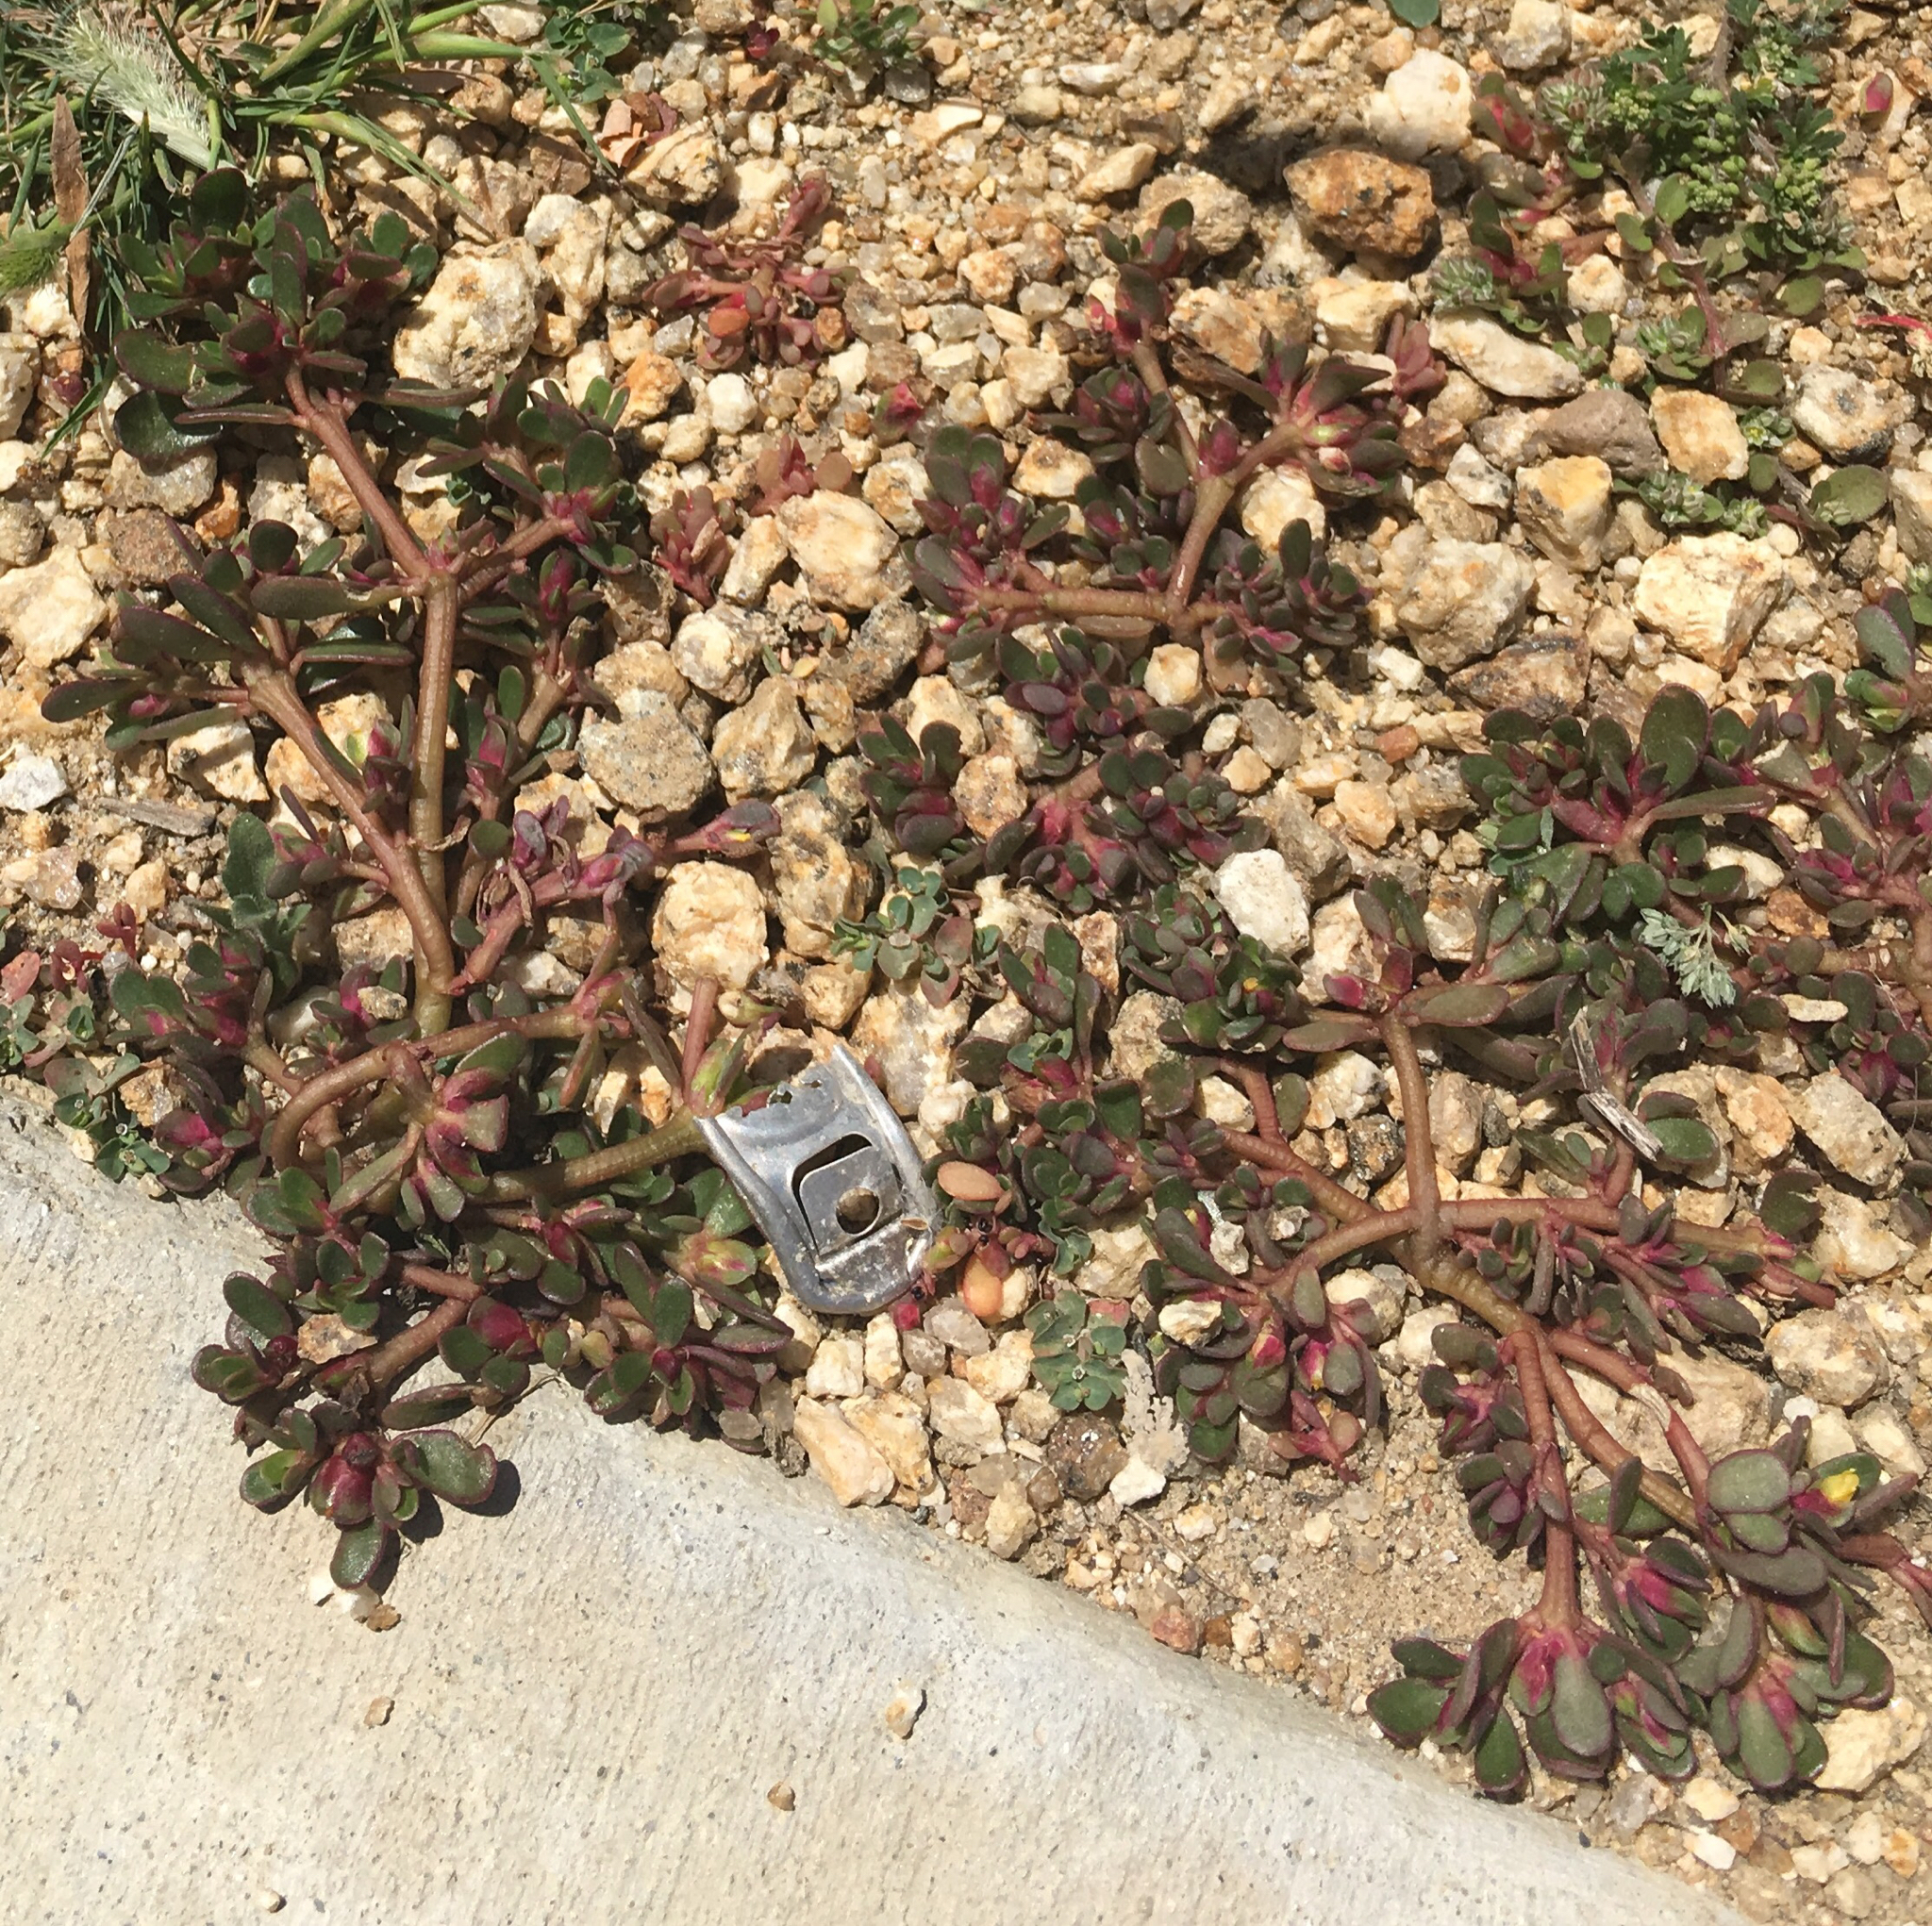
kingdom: Plantae
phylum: Tracheophyta
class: Magnoliopsida
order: Caryophyllales
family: Portulacaceae
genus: Portulaca
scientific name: Portulaca oleracea
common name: Common purslane
